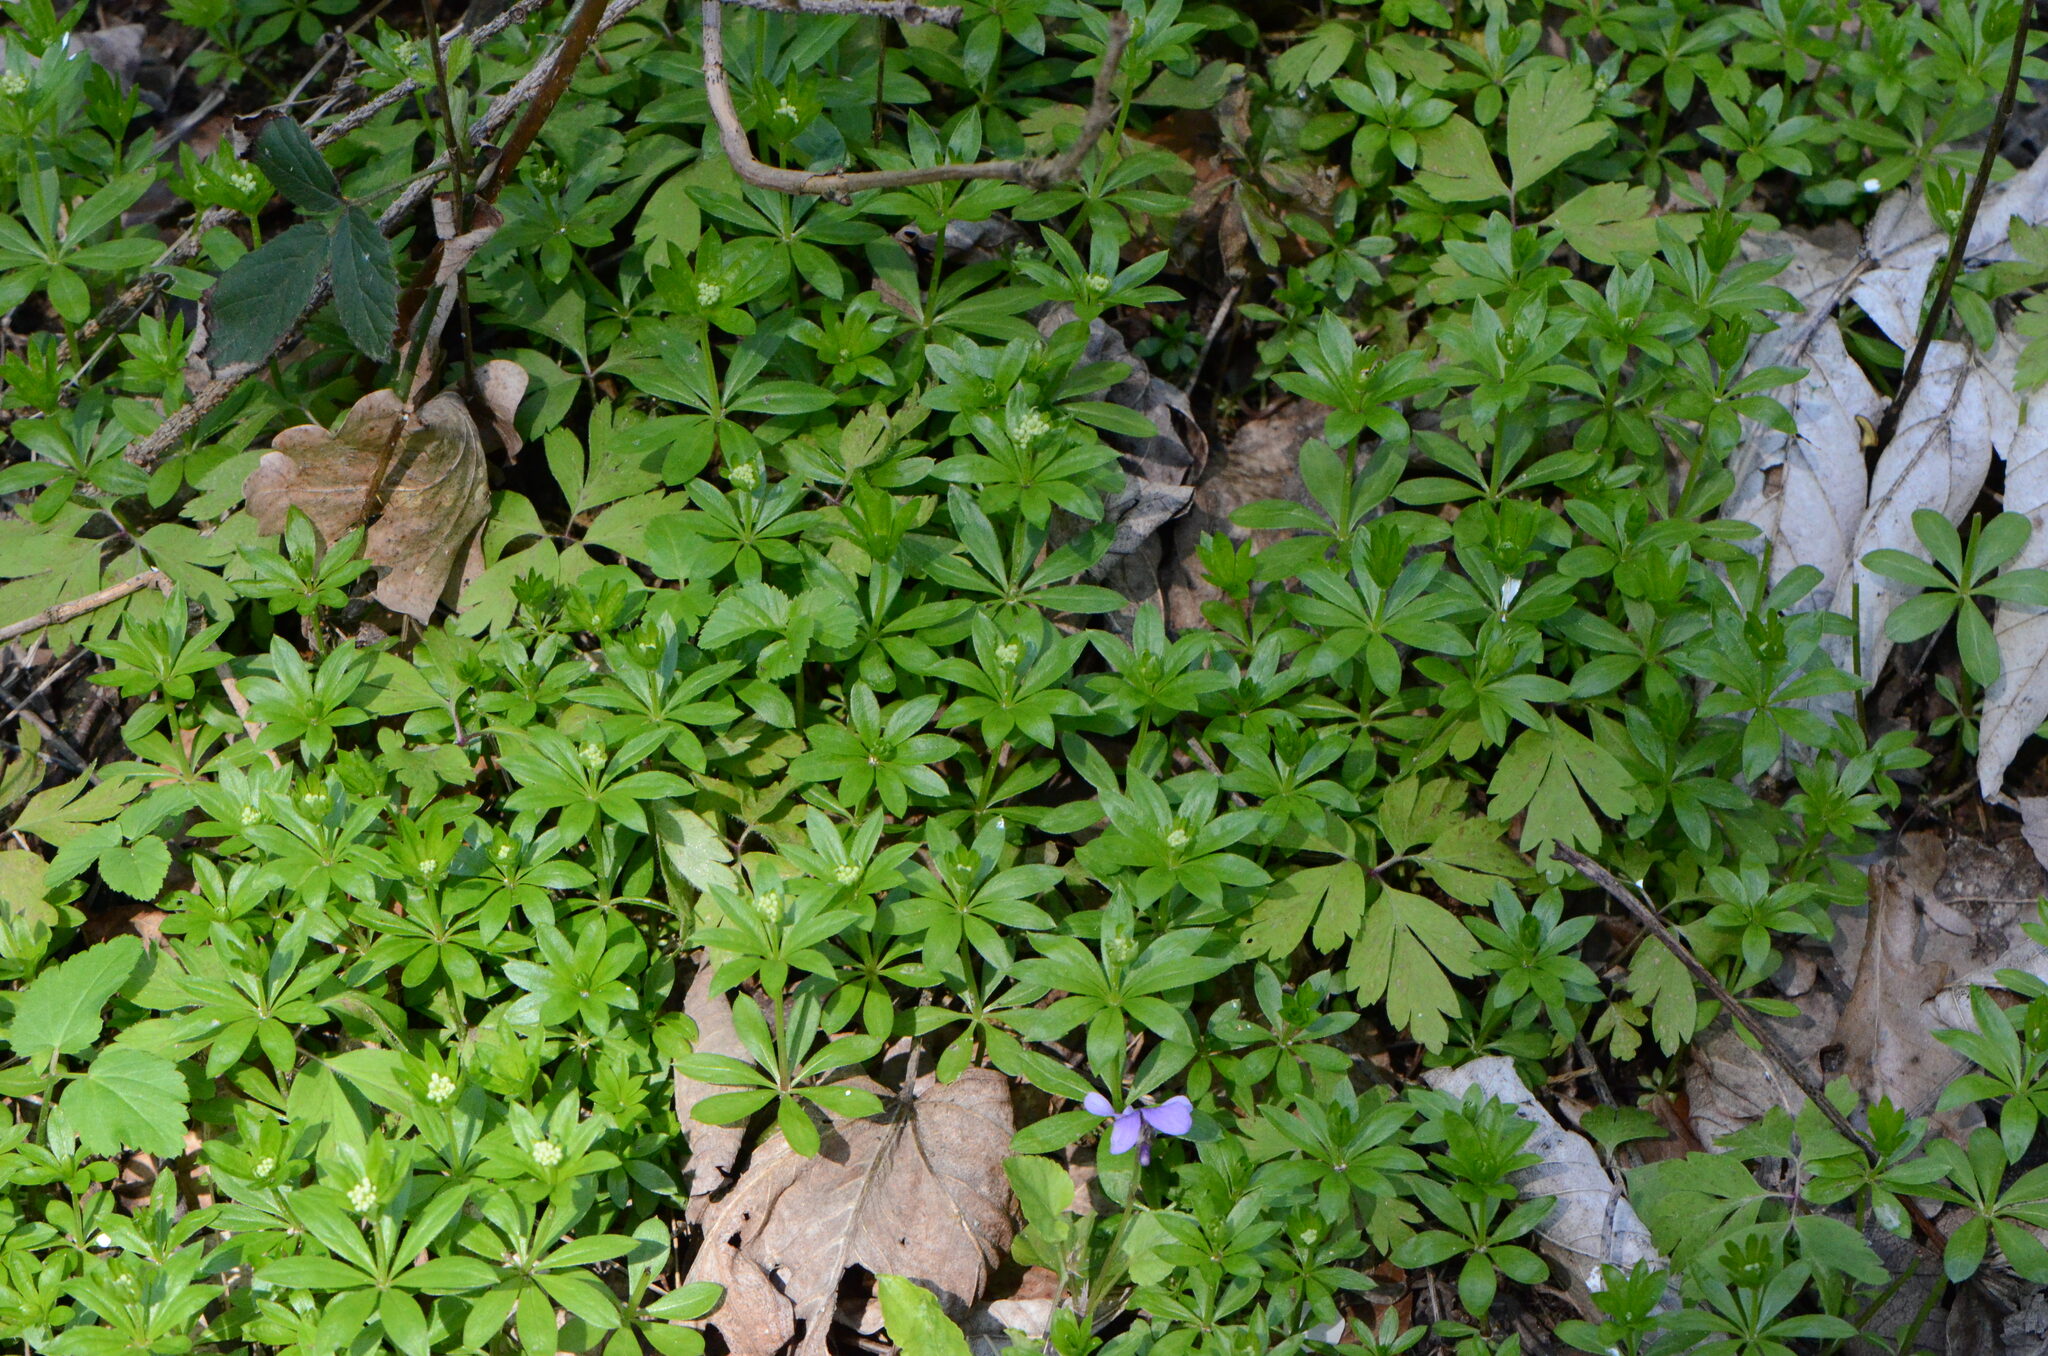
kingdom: Plantae
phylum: Tracheophyta
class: Magnoliopsida
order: Gentianales
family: Rubiaceae
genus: Galium
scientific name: Galium odoratum
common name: Sweet woodruff
